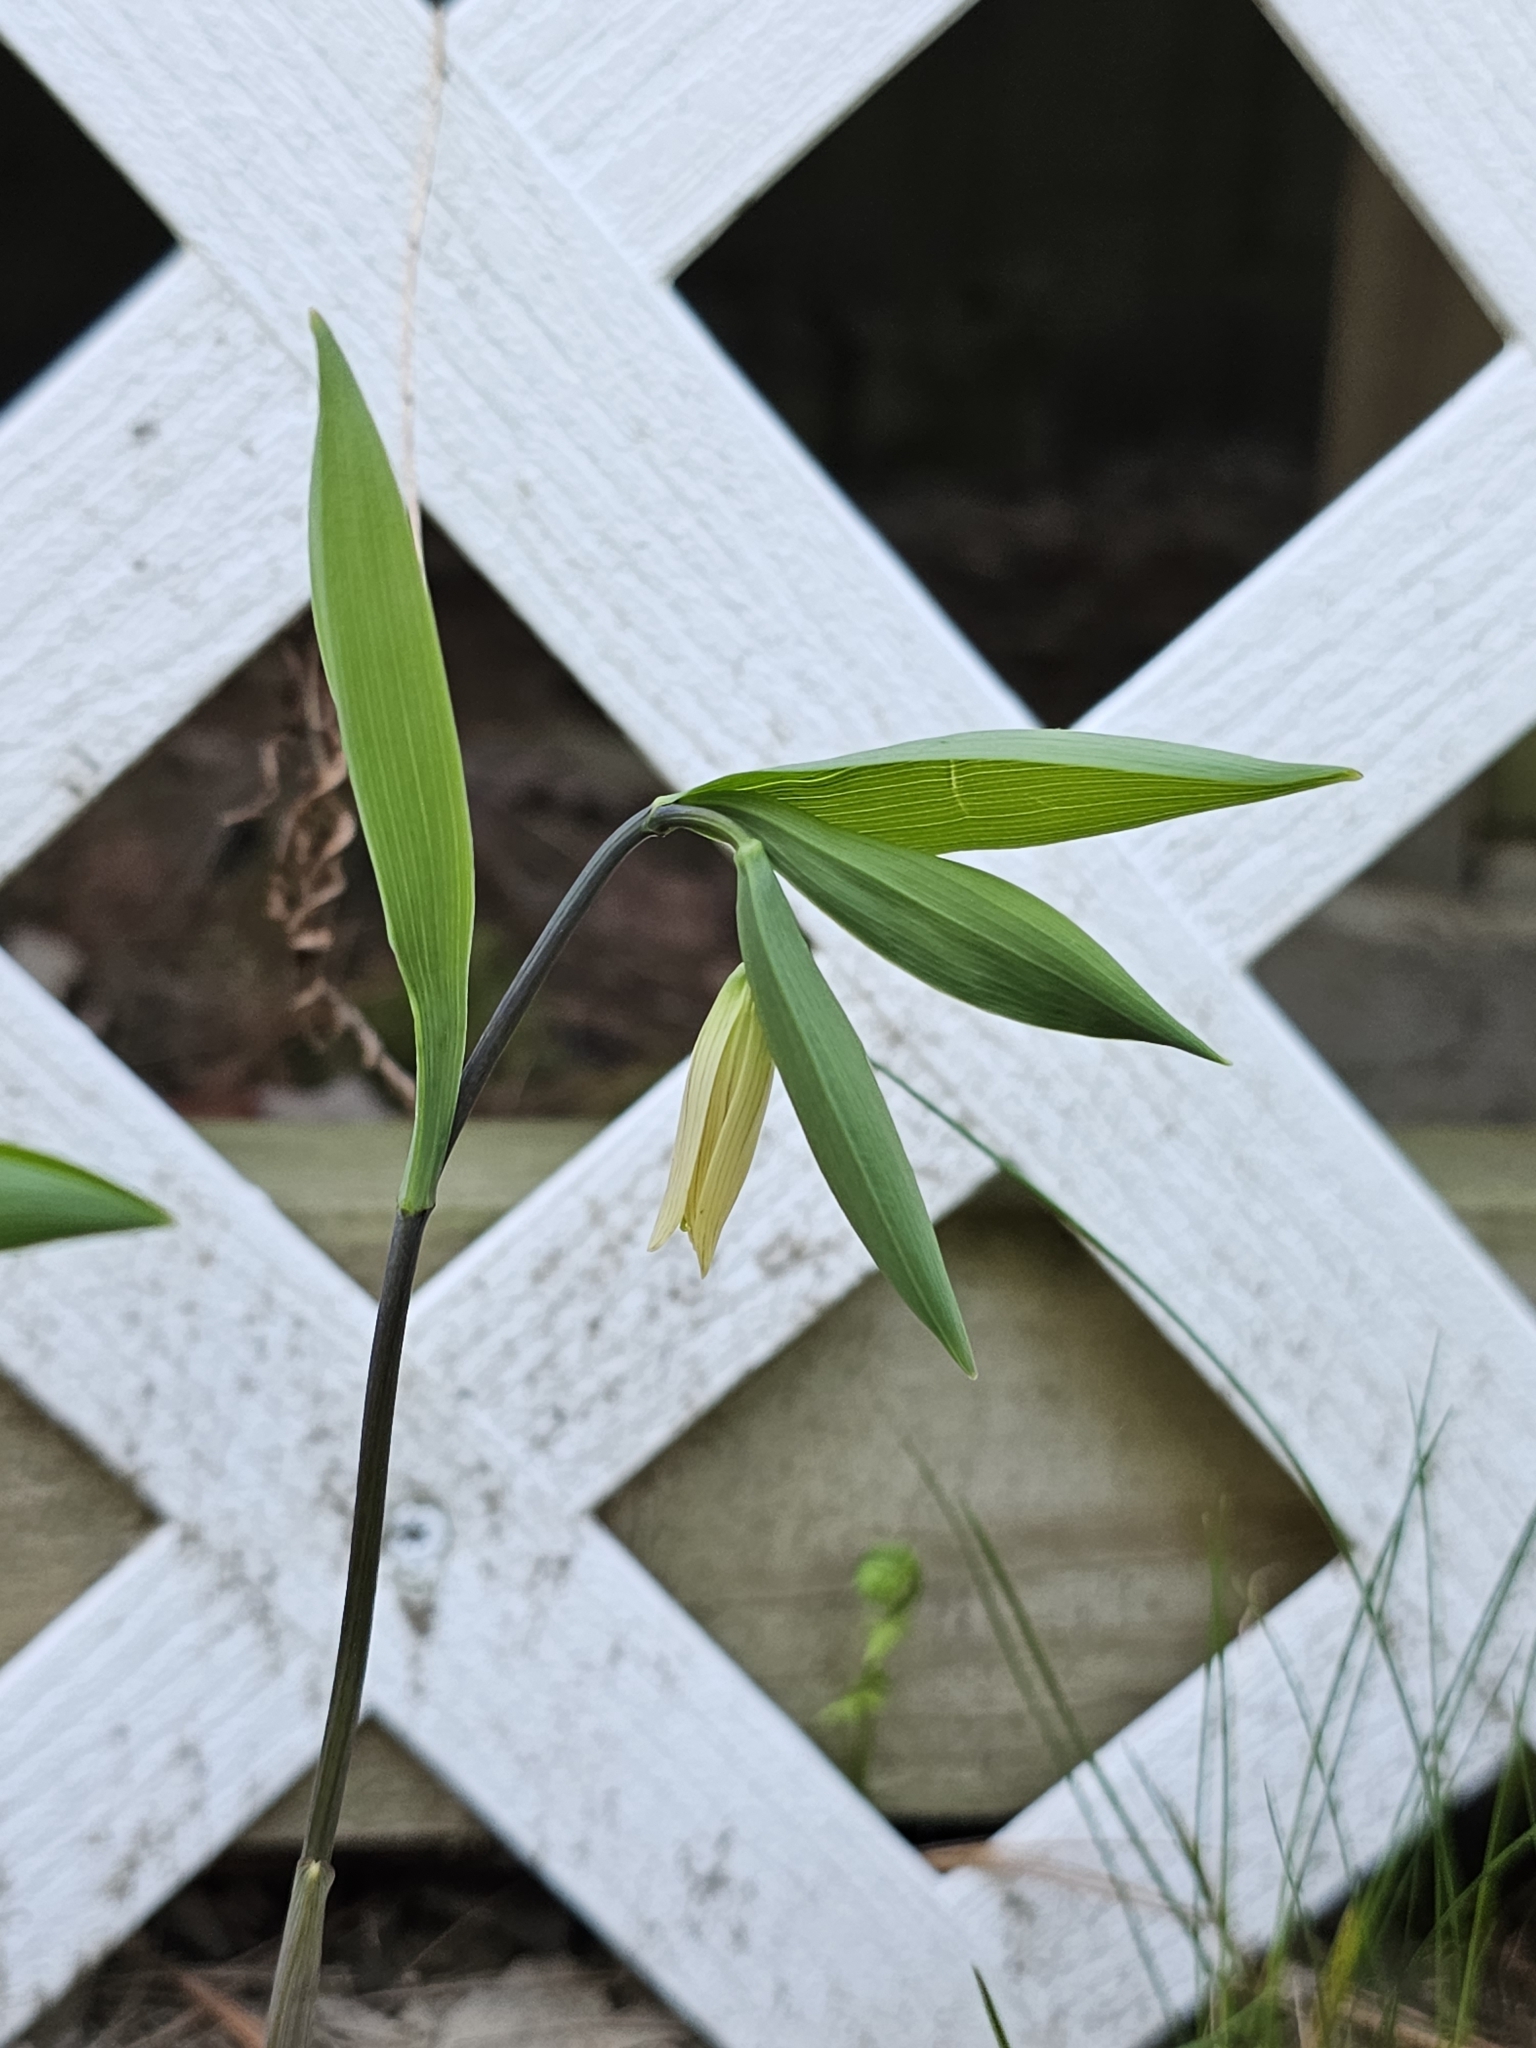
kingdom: Plantae
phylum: Tracheophyta
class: Liliopsida
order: Liliales
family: Colchicaceae
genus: Uvularia
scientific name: Uvularia sessilifolia
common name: Straw-lily
